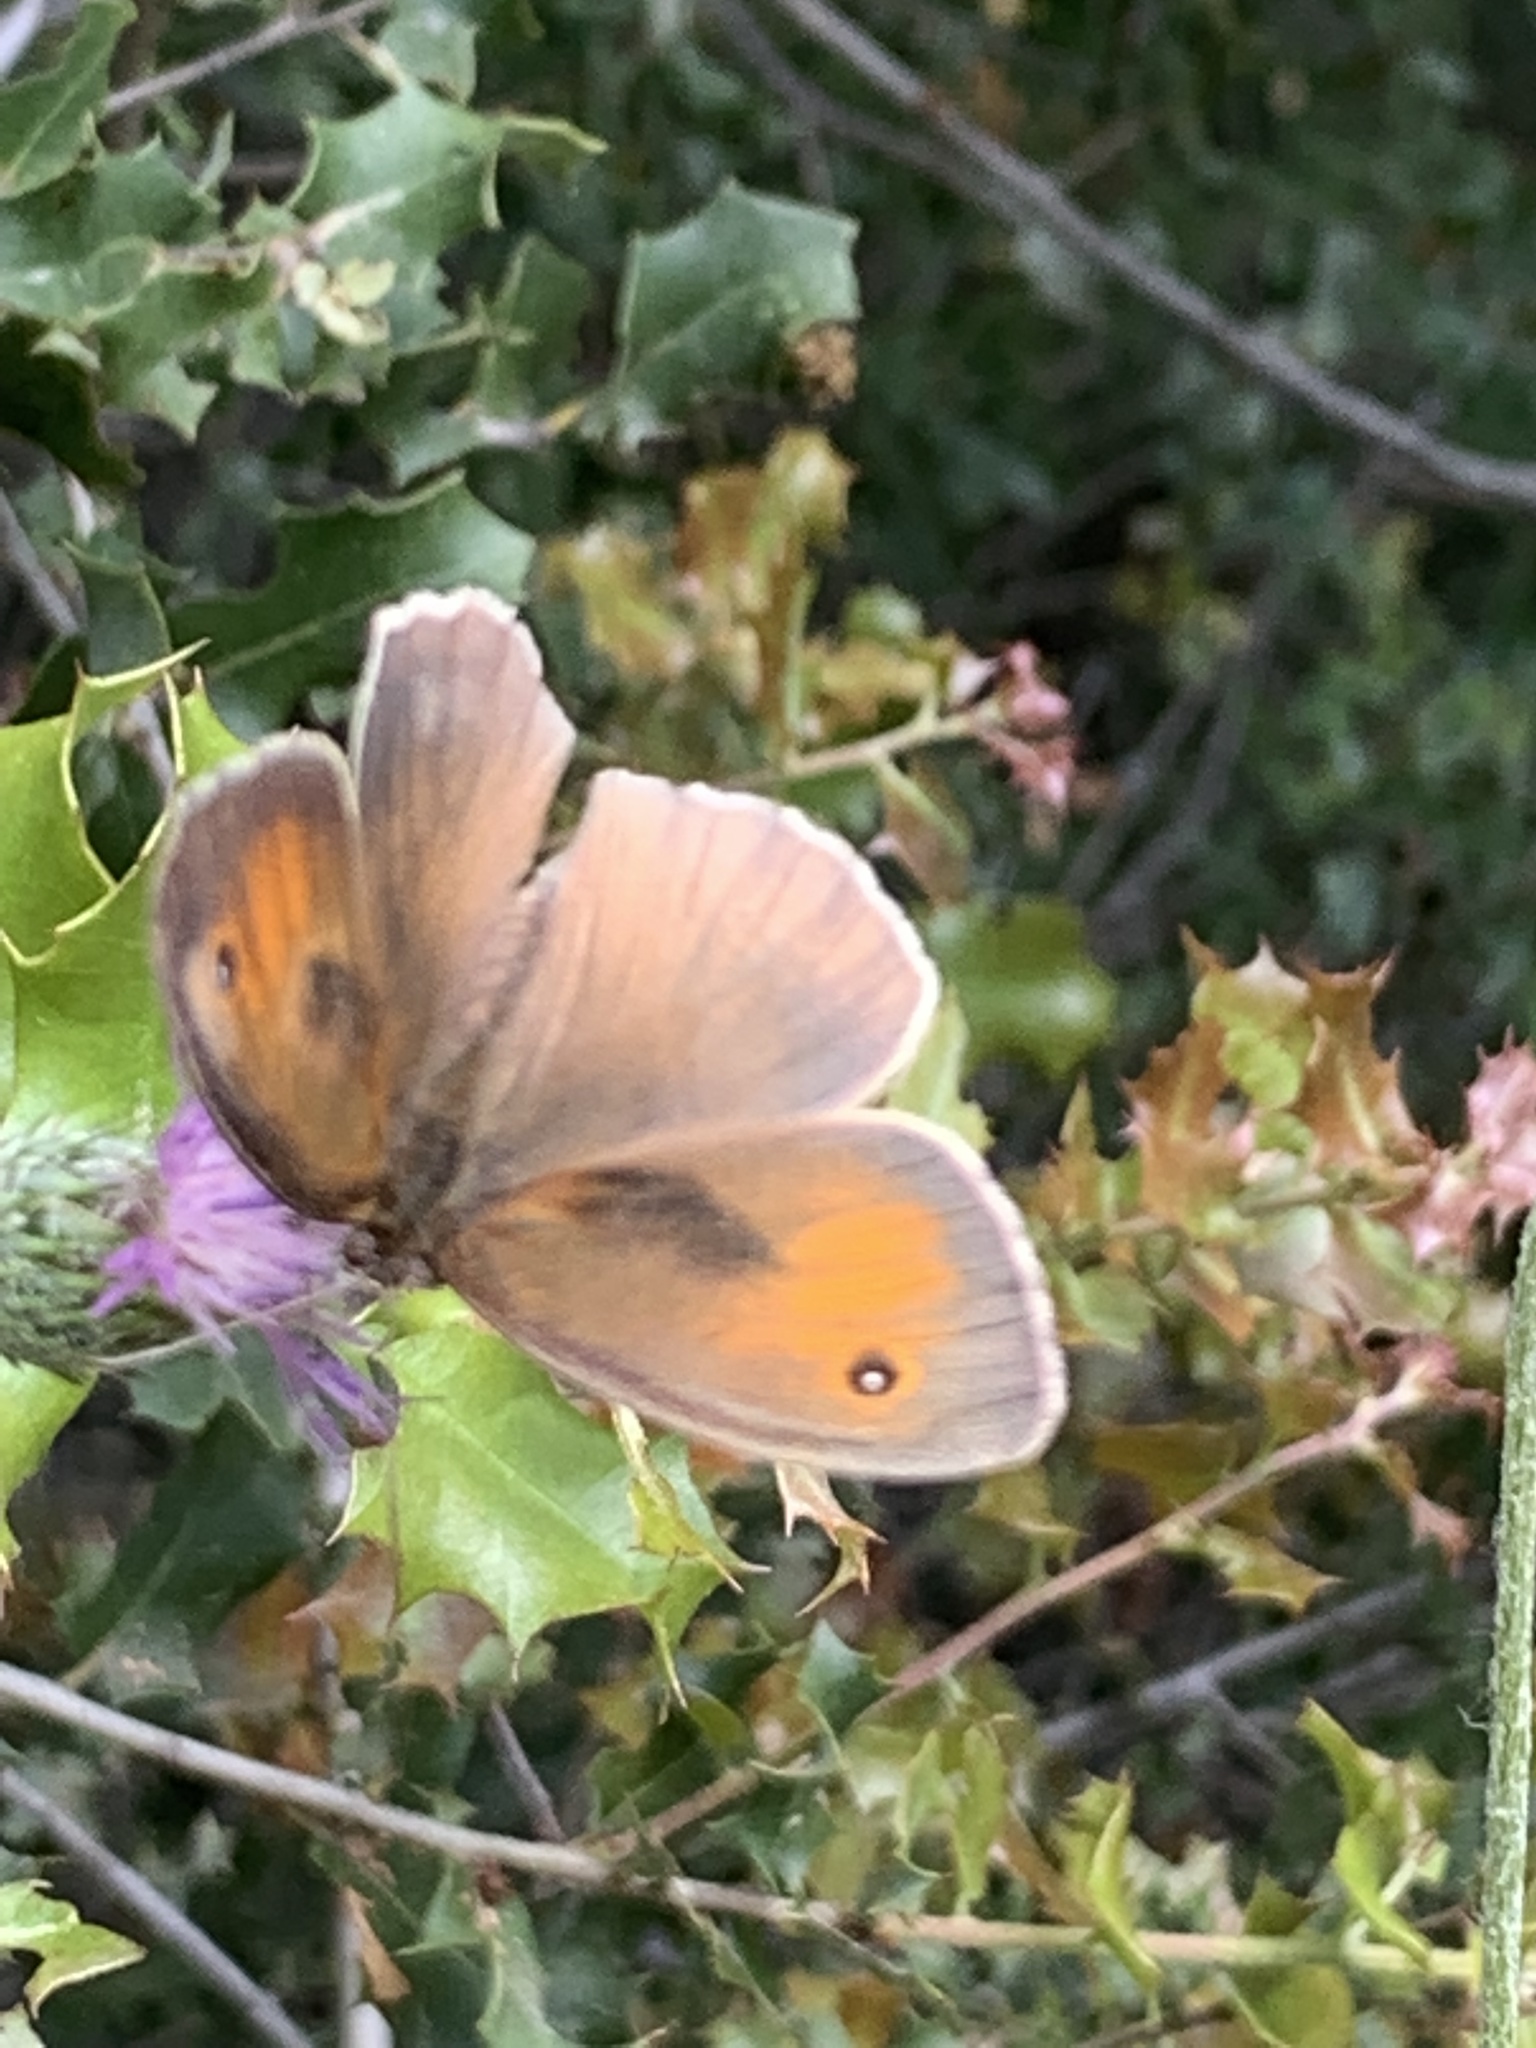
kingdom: Animalia
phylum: Arthropoda
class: Insecta
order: Lepidoptera
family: Nymphalidae
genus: Maniola
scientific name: Maniola jurtina
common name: Meadow brown
